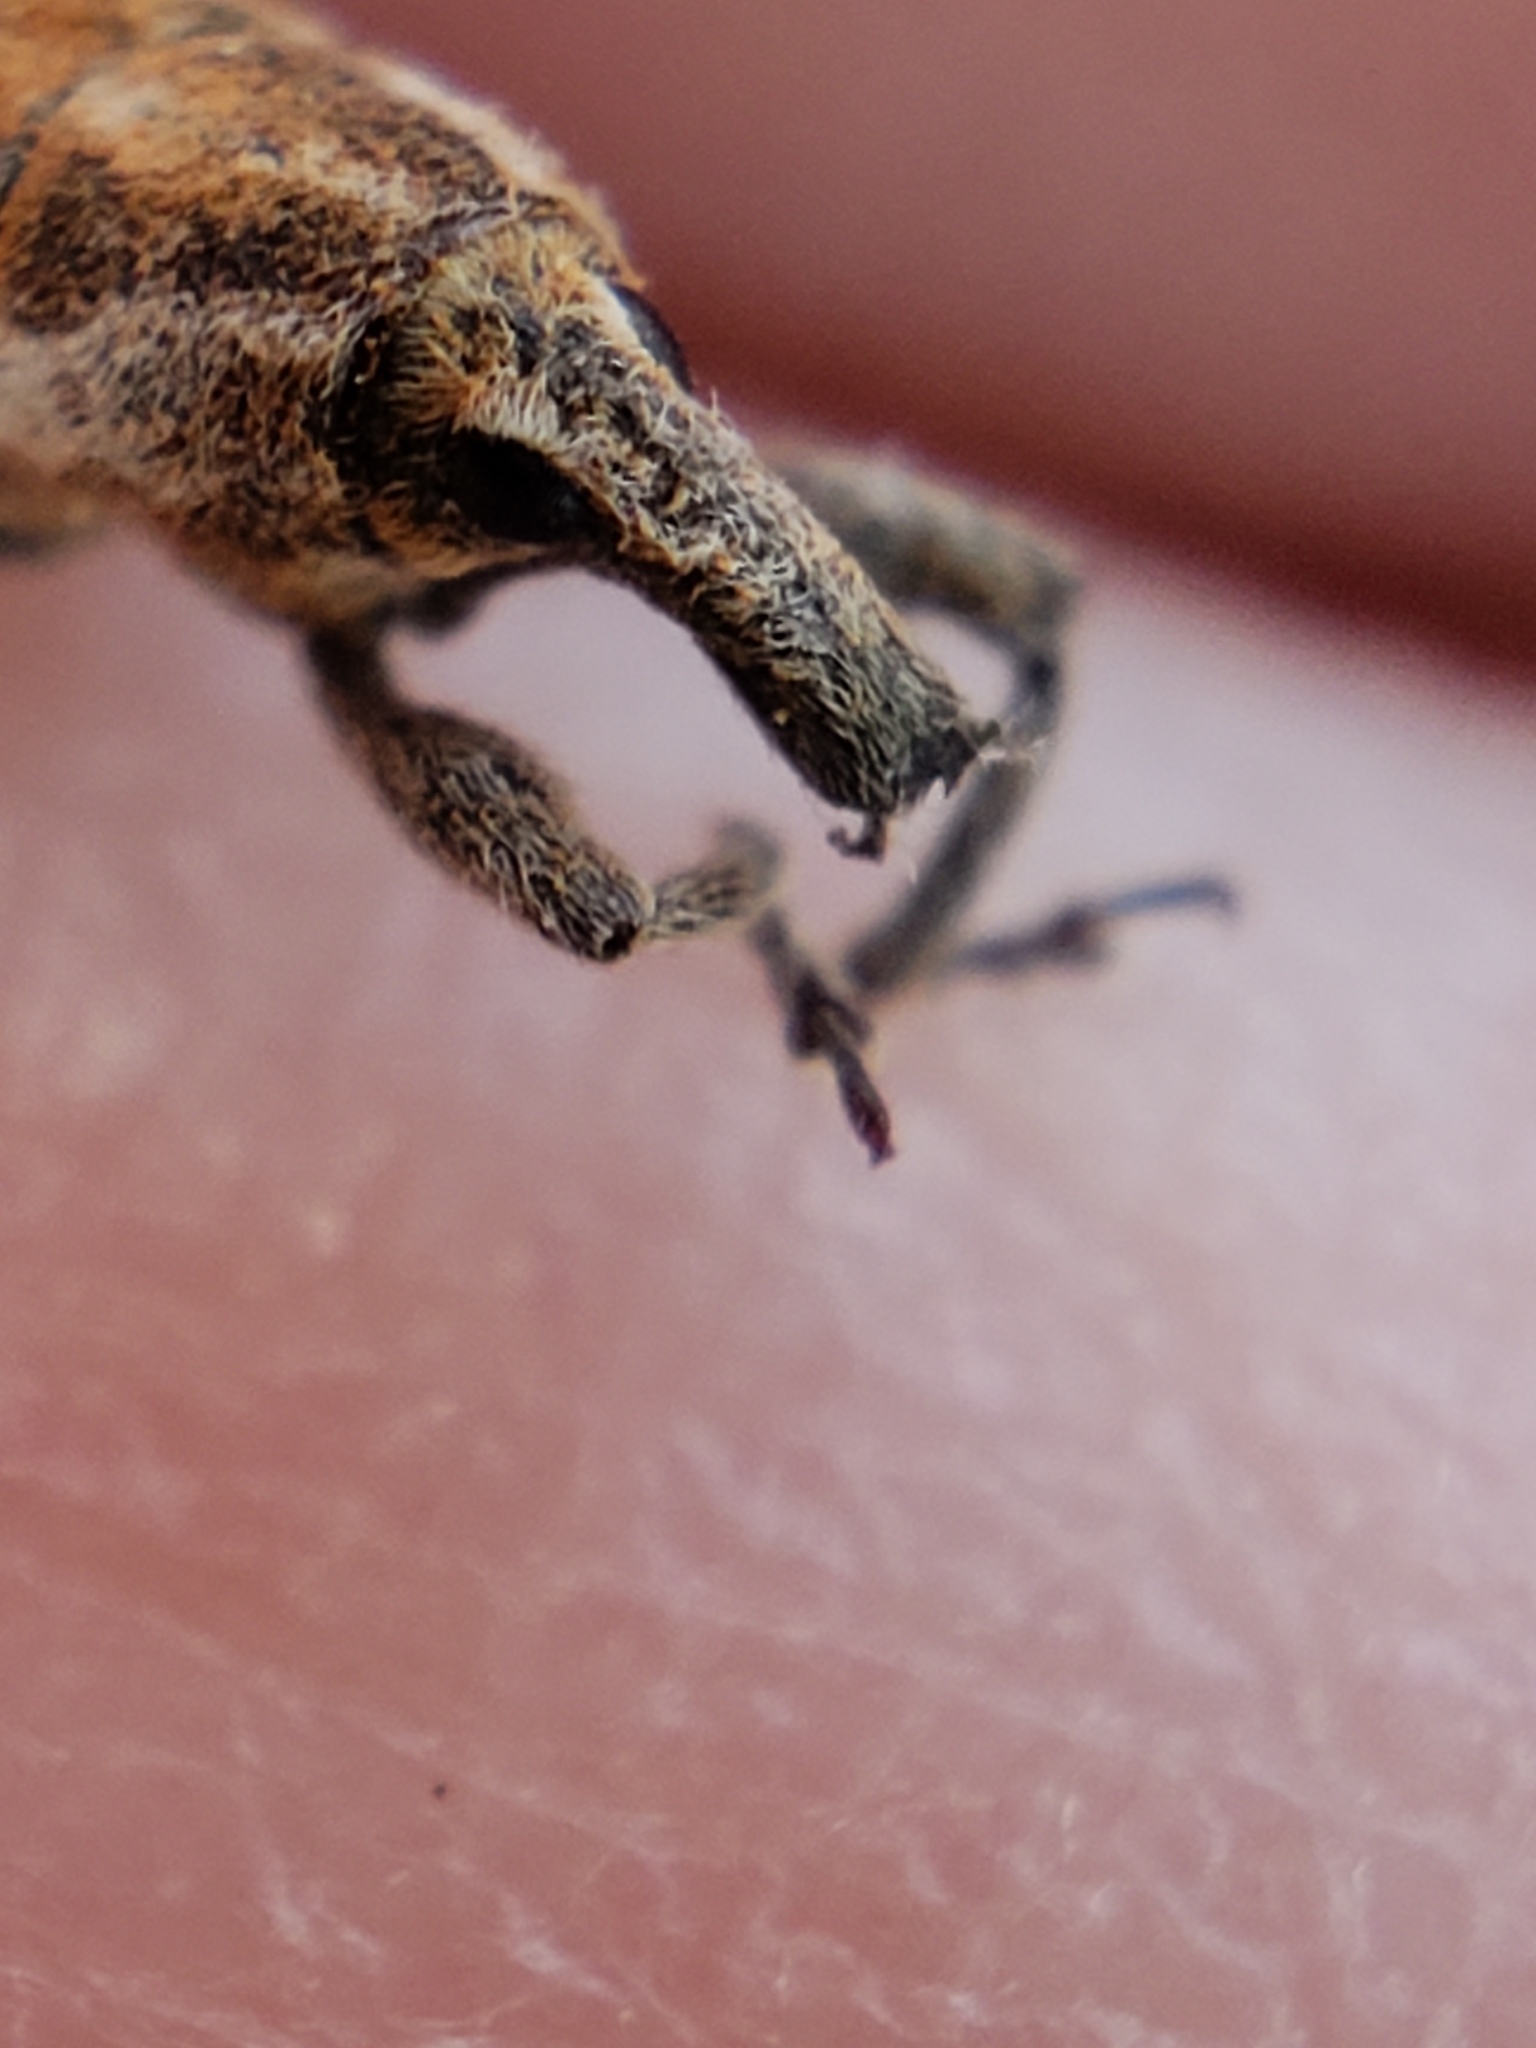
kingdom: Animalia
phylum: Arthropoda
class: Insecta
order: Coleoptera
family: Curculionidae
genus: Lixus
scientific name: Lixus perforatus
